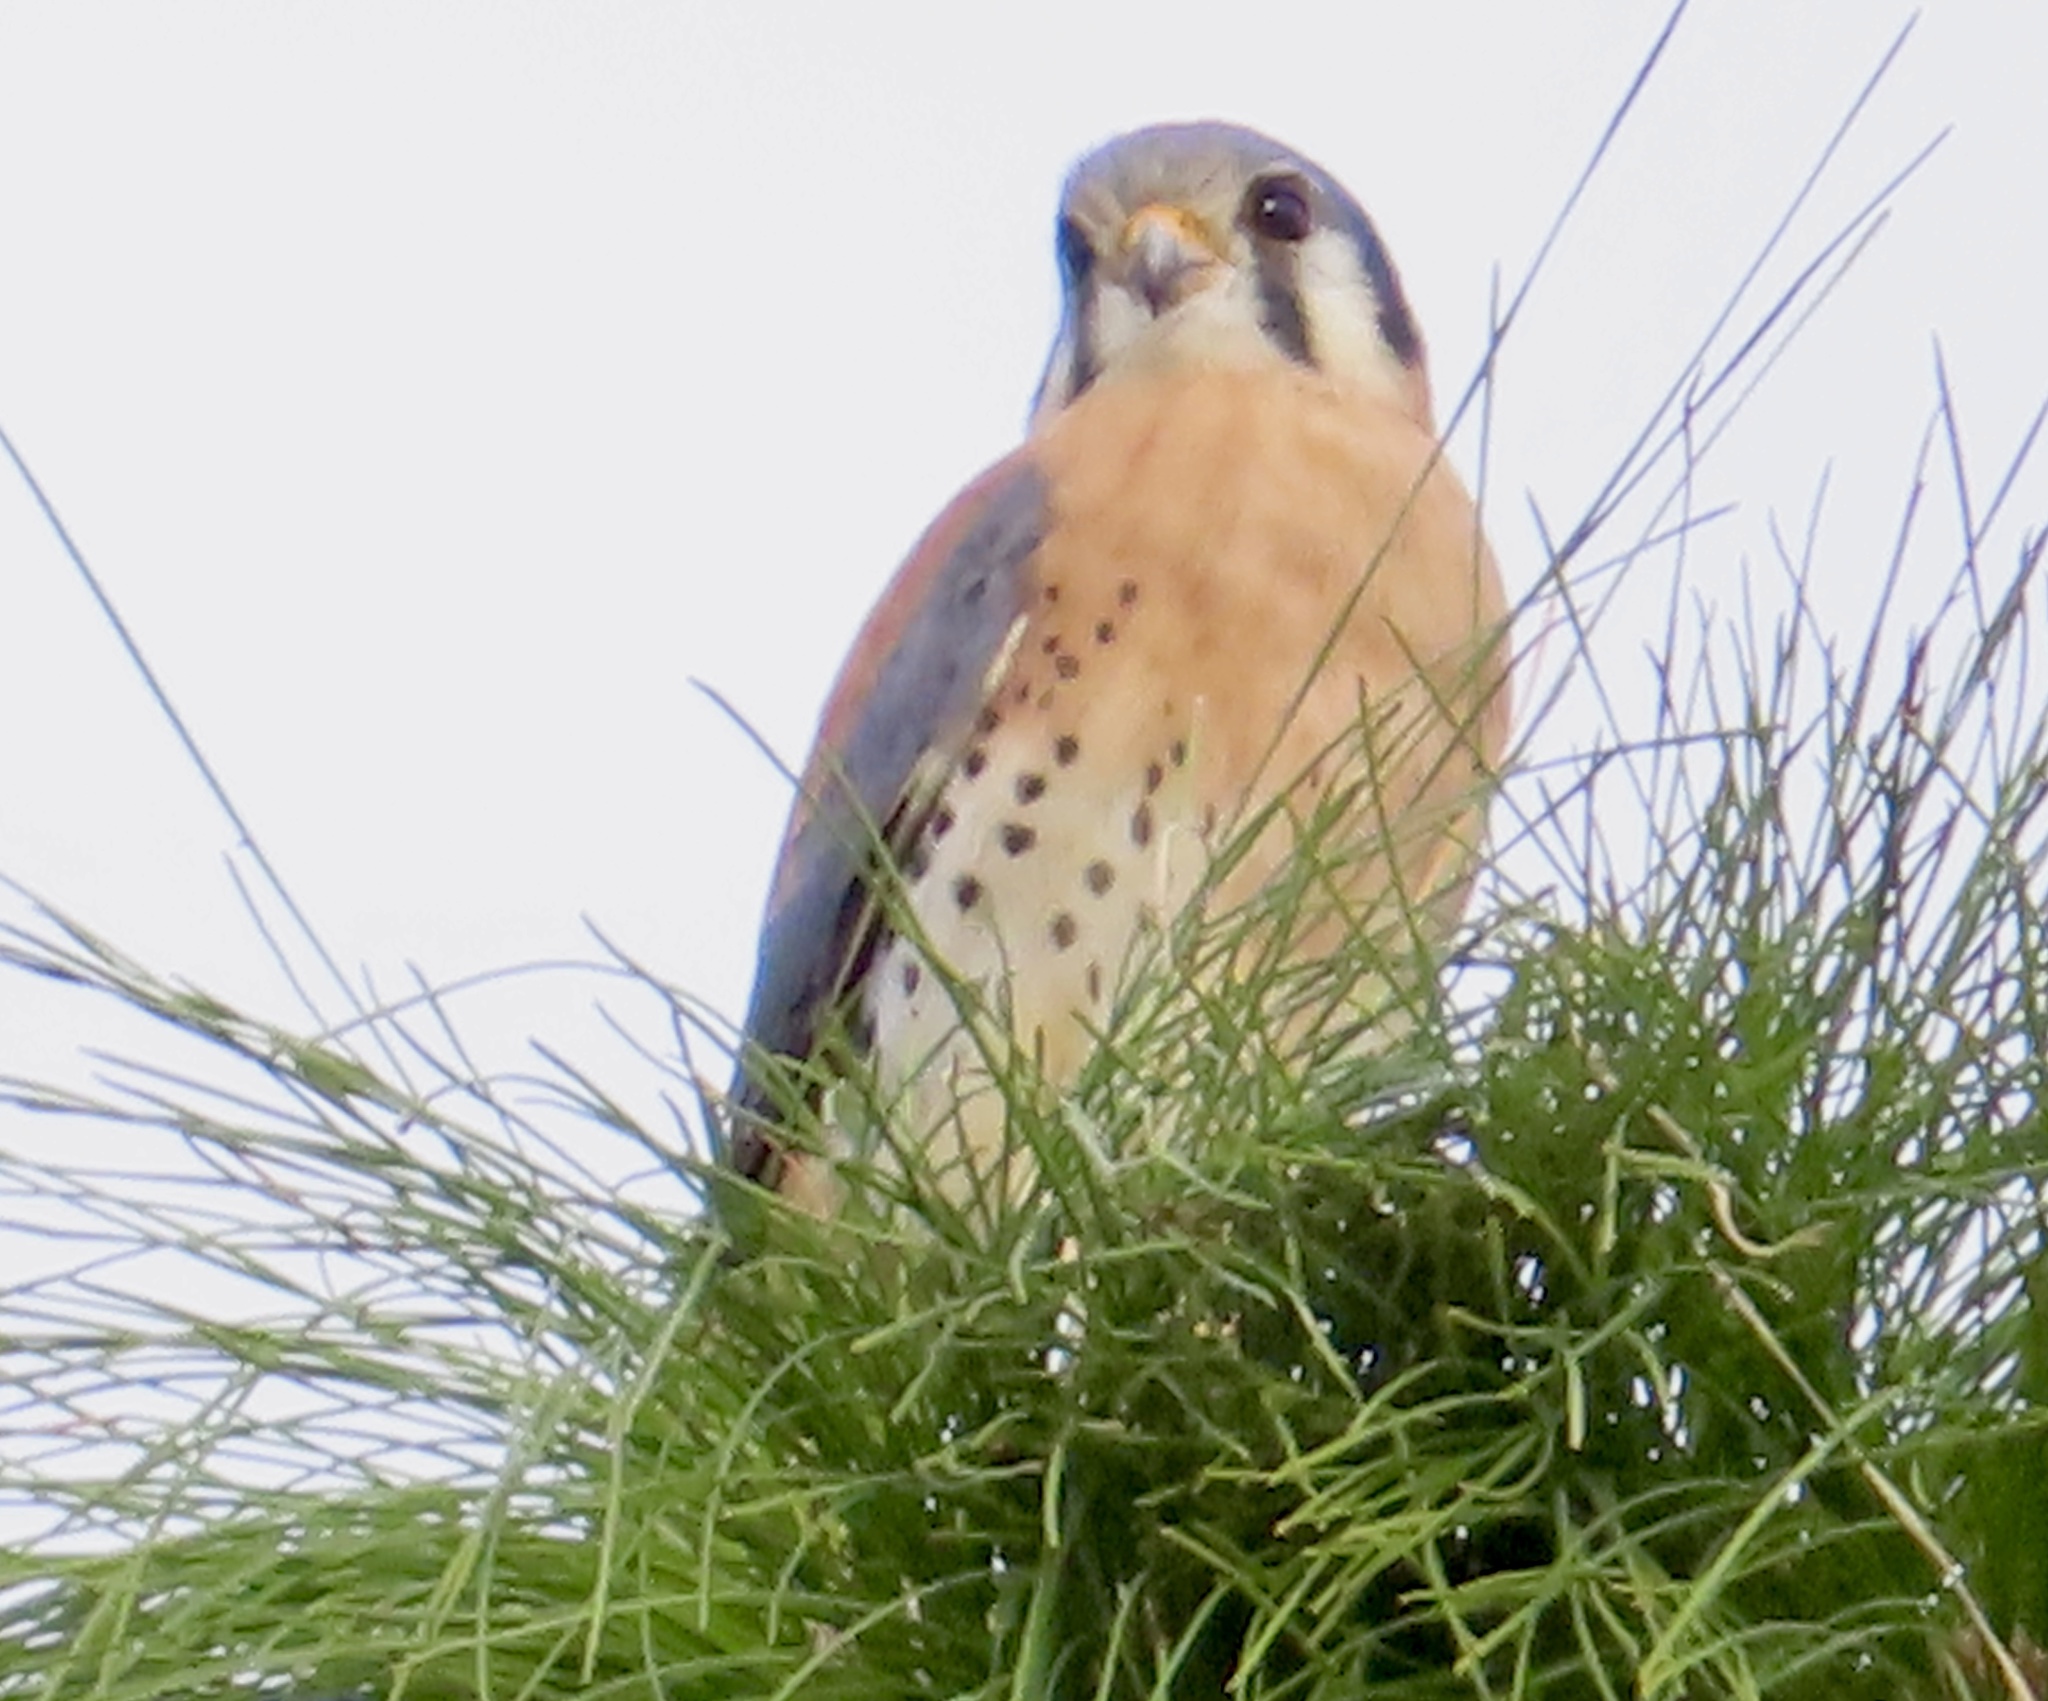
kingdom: Animalia
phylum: Chordata
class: Aves
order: Falconiformes
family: Falconidae
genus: Falco
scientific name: Falco sparverius
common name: American kestrel
